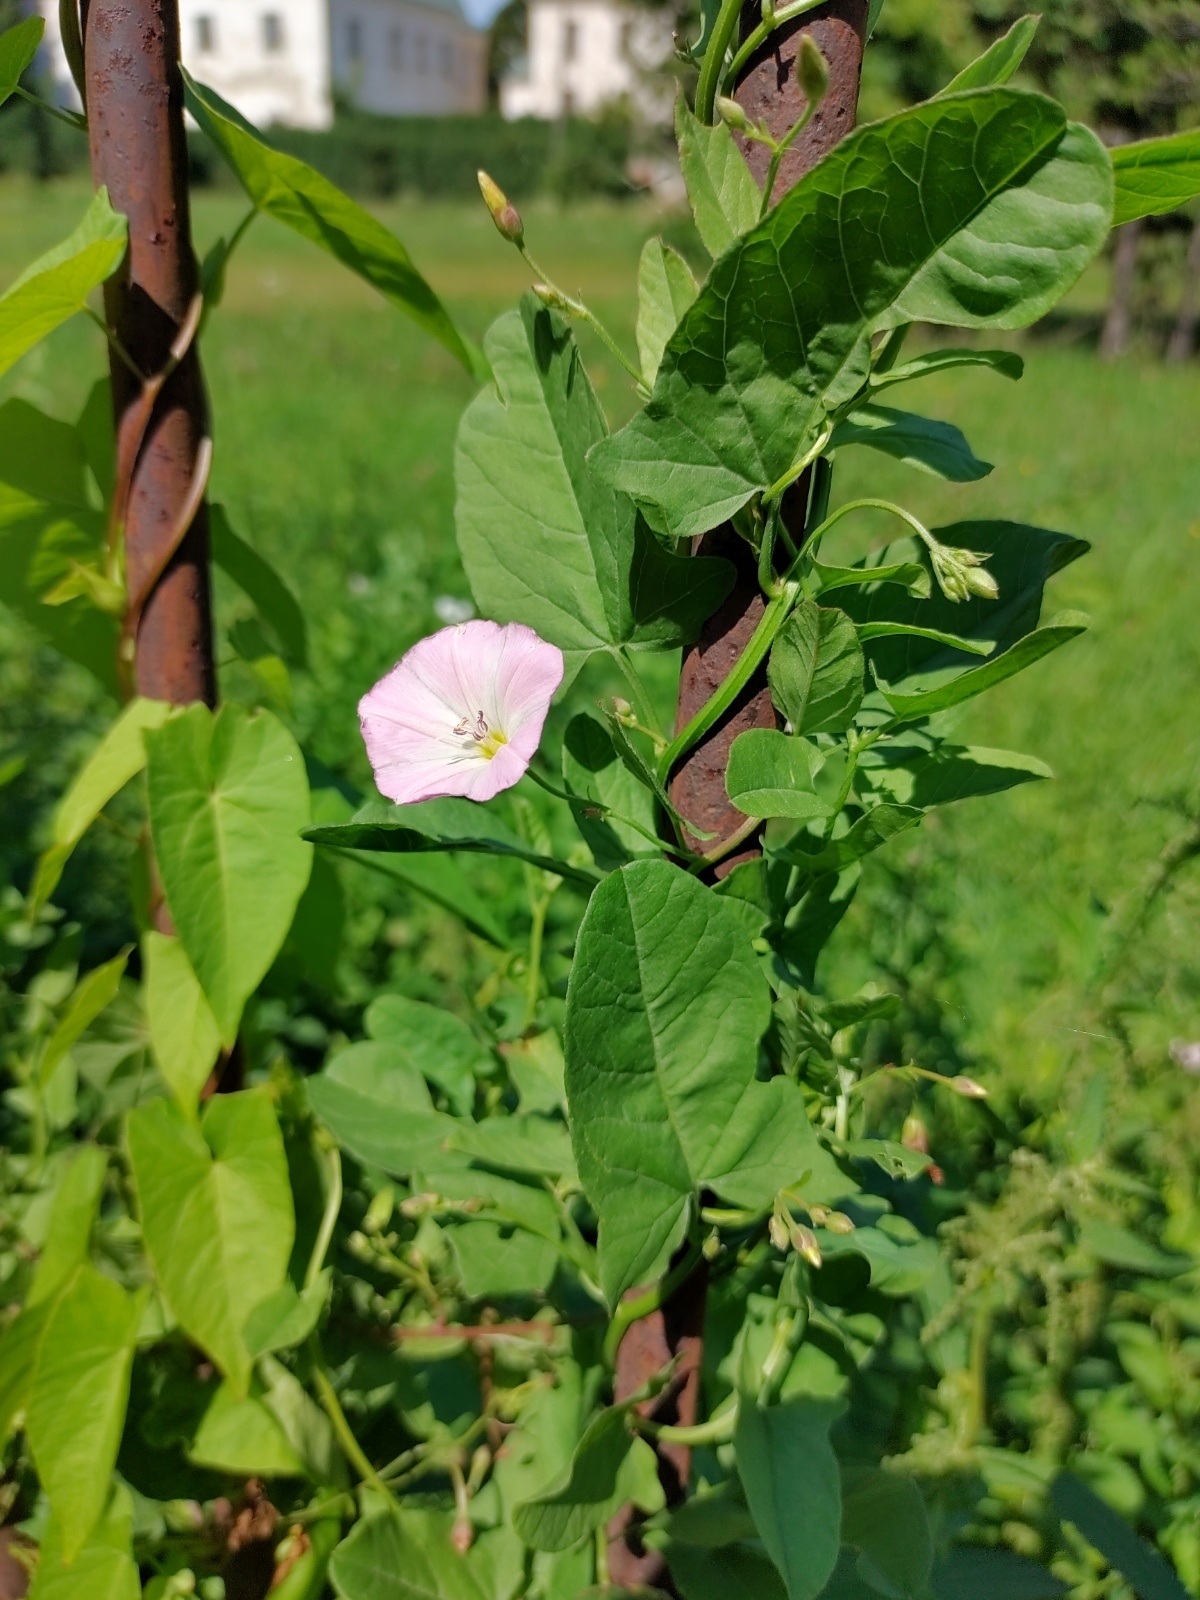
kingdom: Plantae
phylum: Tracheophyta
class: Magnoliopsida
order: Solanales
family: Convolvulaceae
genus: Convolvulus
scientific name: Convolvulus arvensis
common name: Field bindweed
